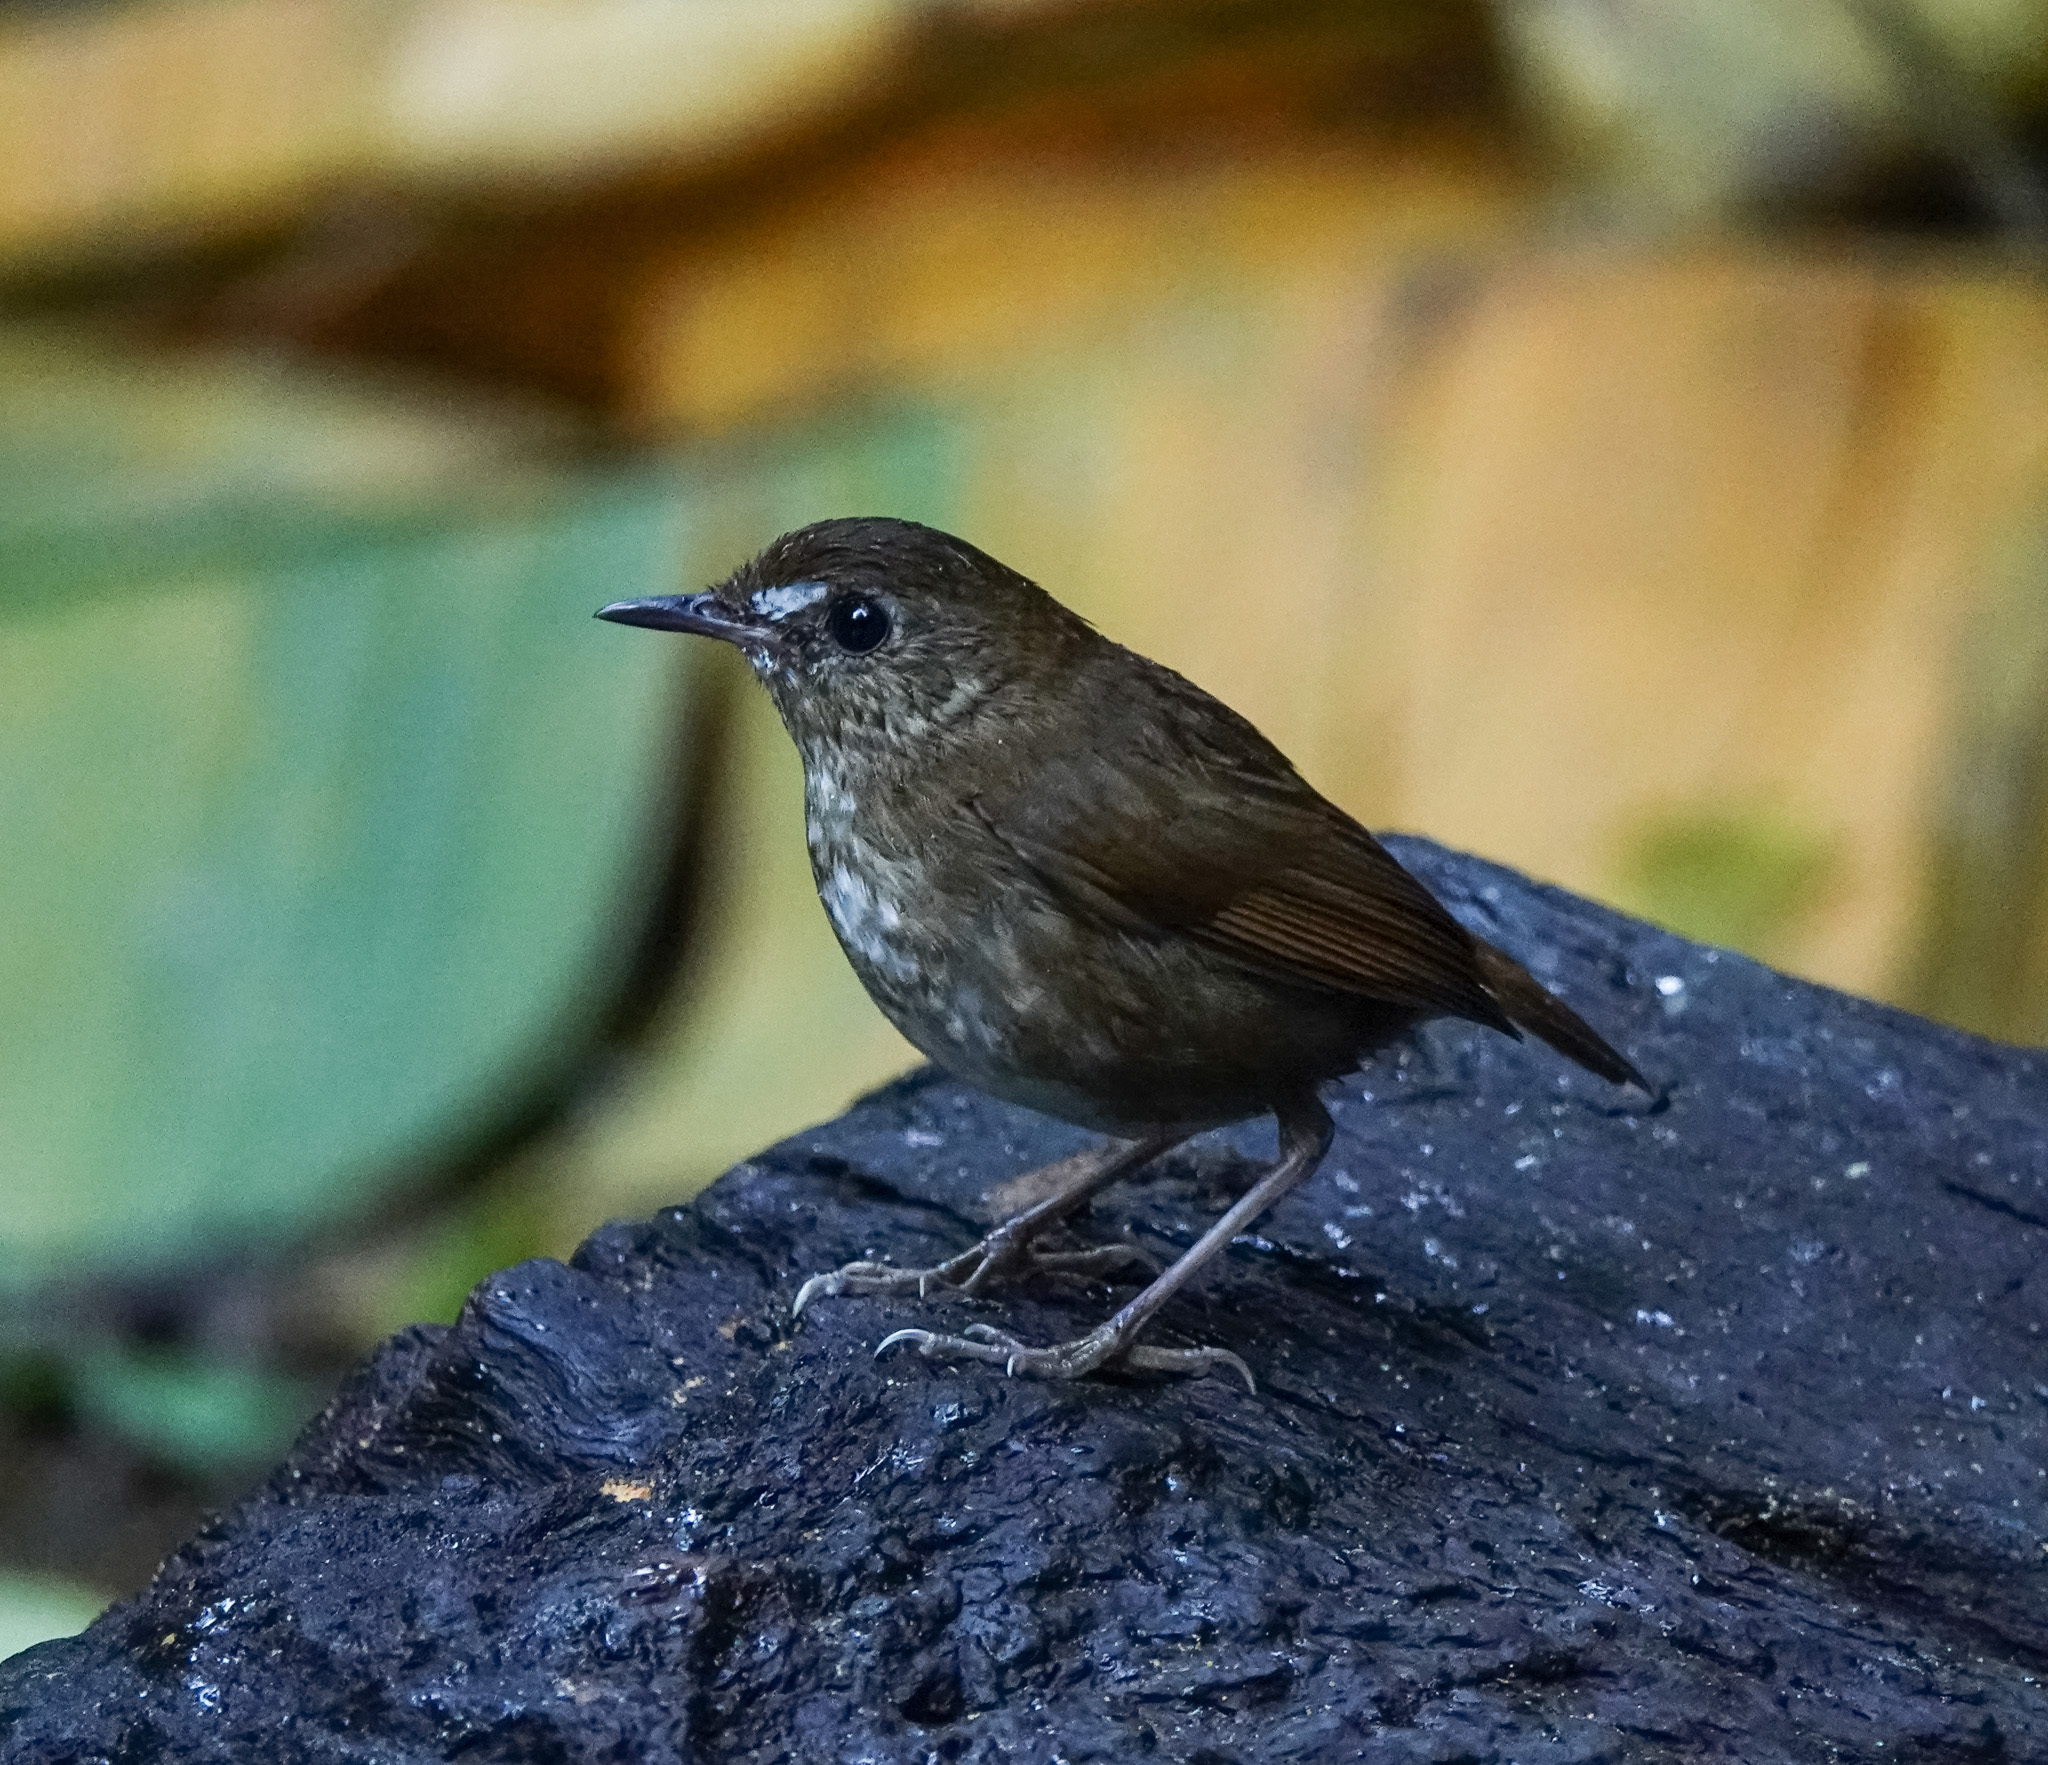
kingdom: Animalia
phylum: Chordata
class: Aves
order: Passeriformes
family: Muscicapidae
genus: Brachypteryx
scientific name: Brachypteryx leucophris
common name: Lesser shortwing
